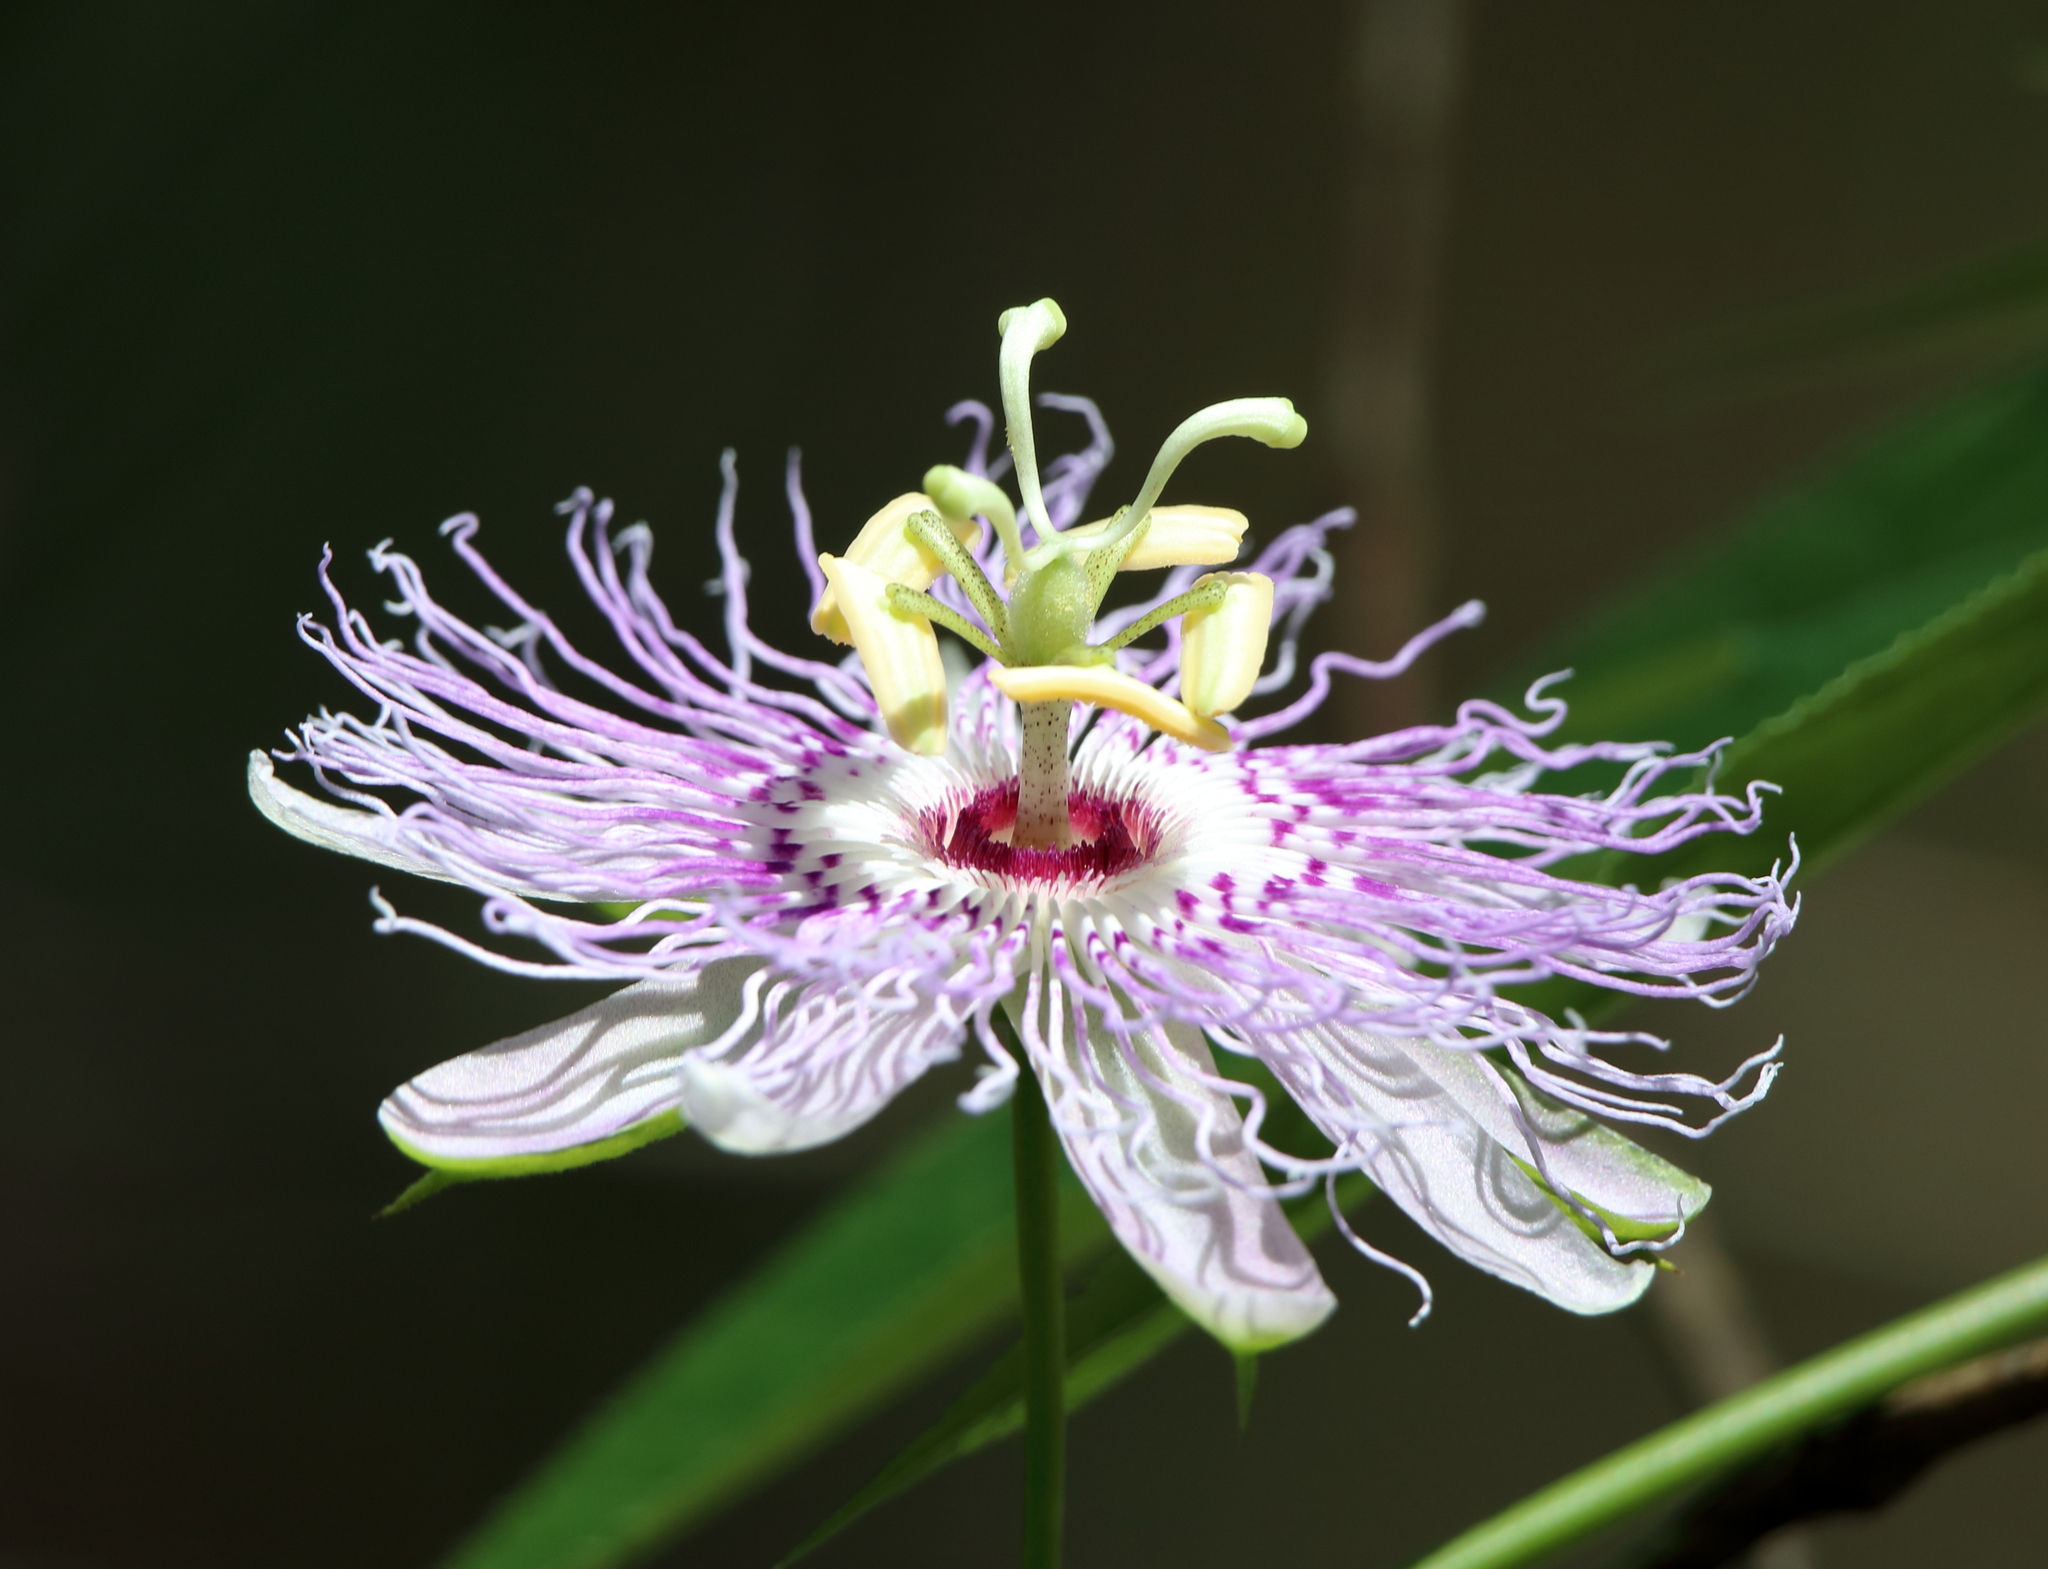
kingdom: Plantae
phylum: Tracheophyta
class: Magnoliopsida
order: Malpighiales
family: Passifloraceae
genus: Passiflora
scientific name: Passiflora incarnata
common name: Apricot-vine
